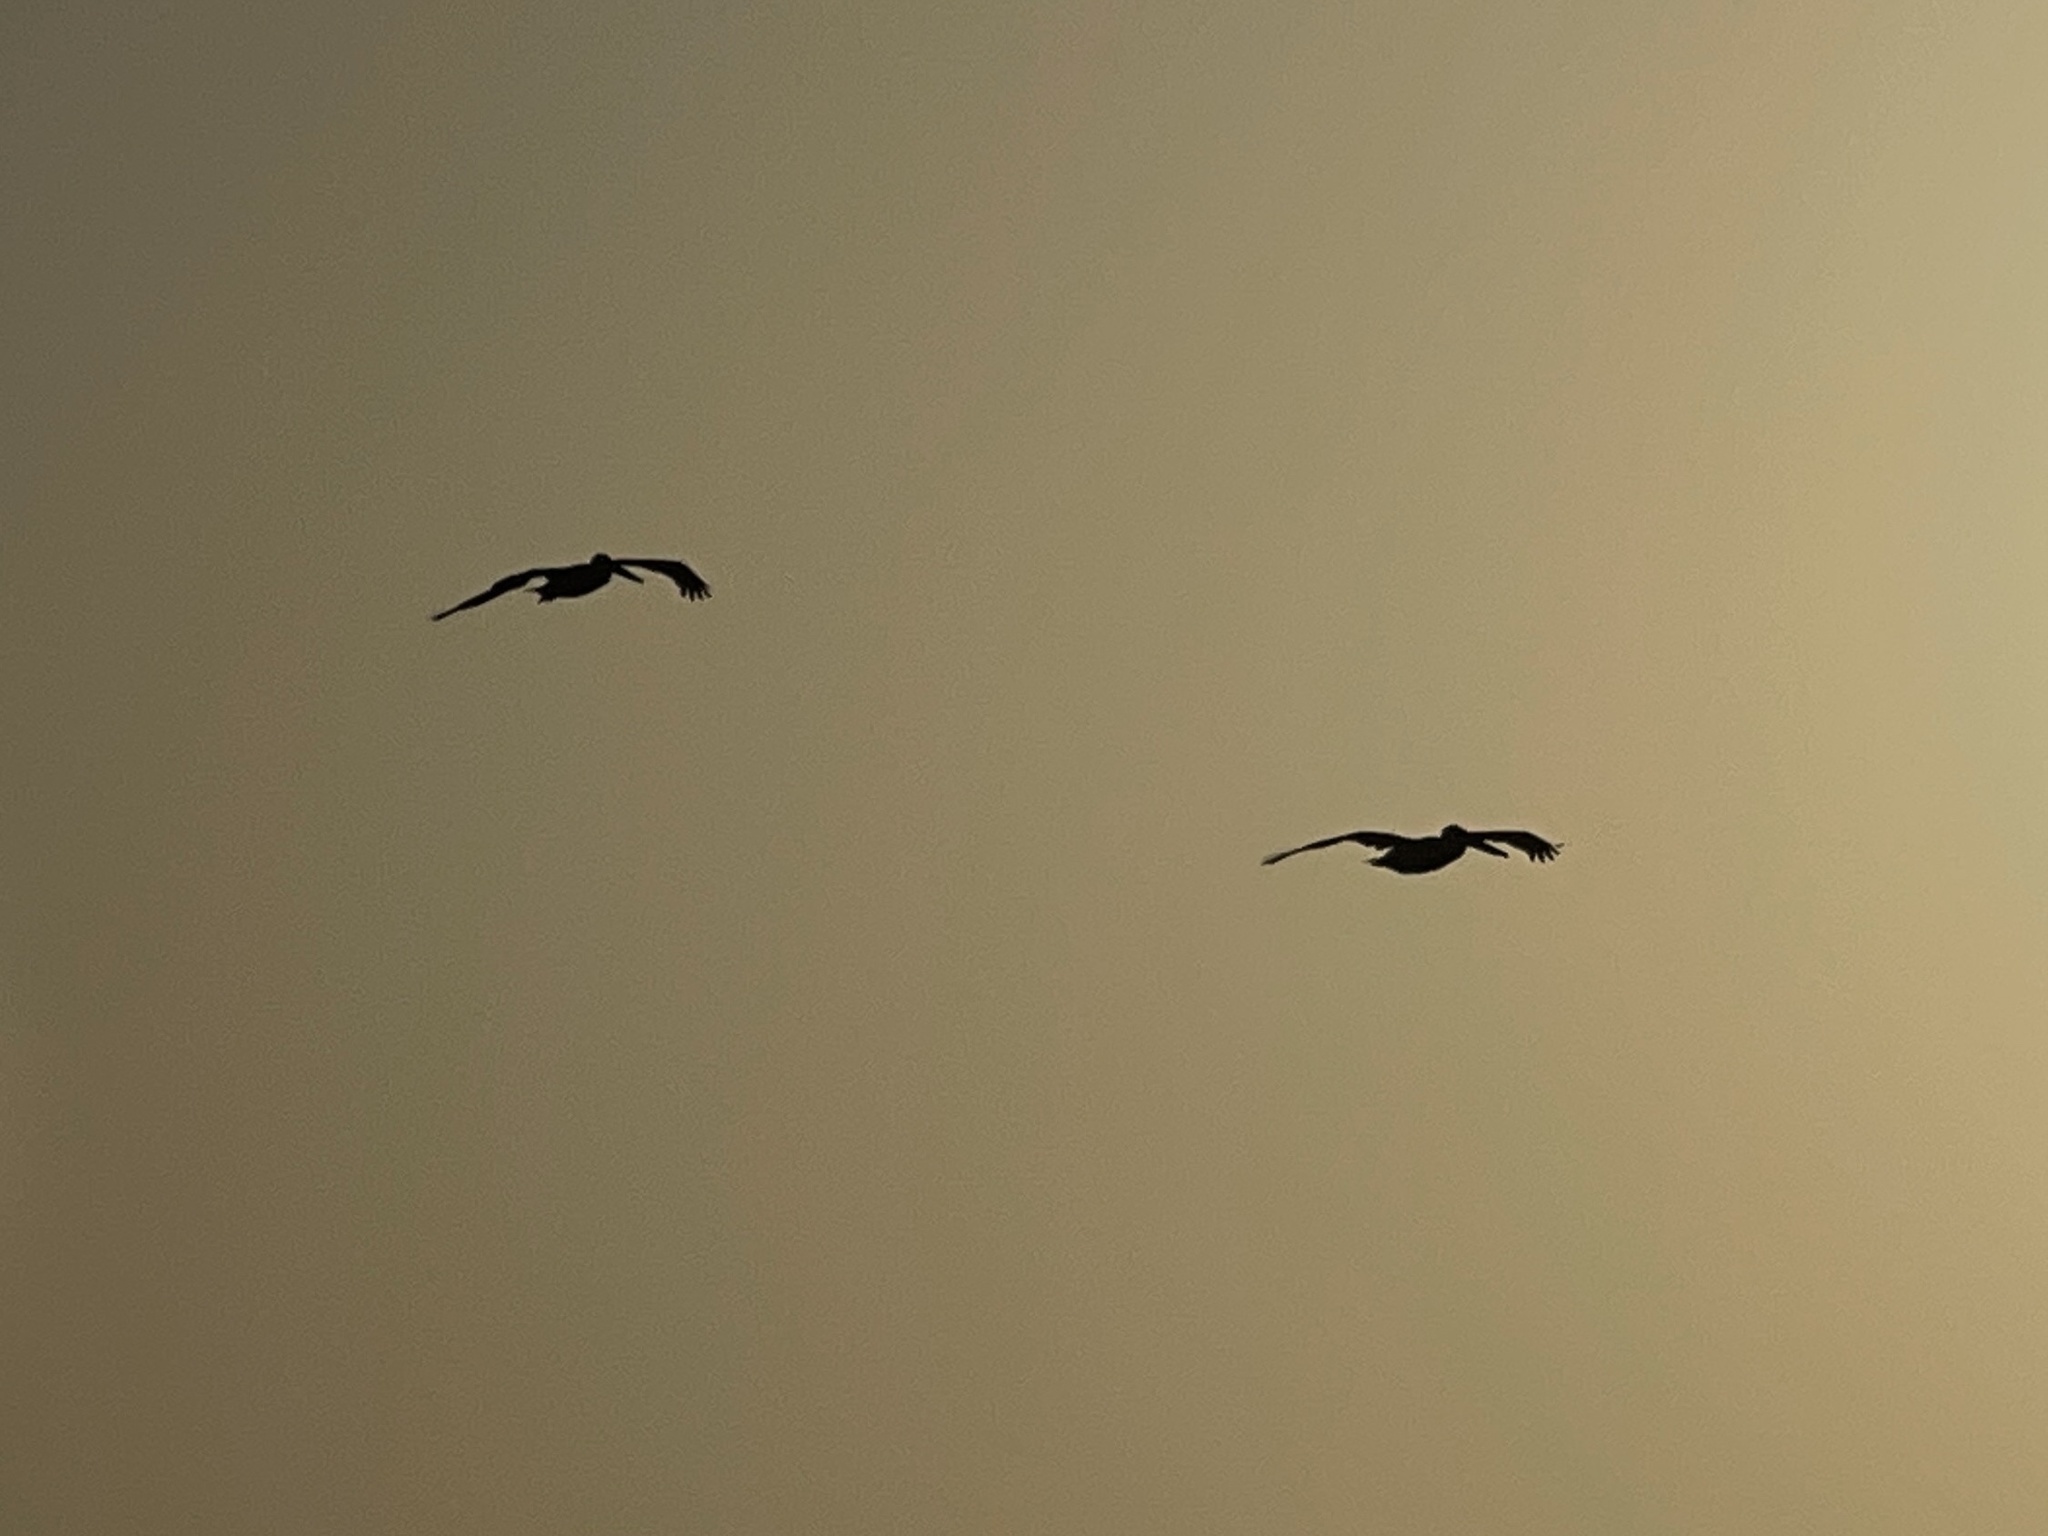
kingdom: Animalia
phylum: Chordata
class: Aves
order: Pelecaniformes
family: Pelecanidae
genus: Pelecanus
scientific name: Pelecanus occidentalis
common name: Brown pelican
